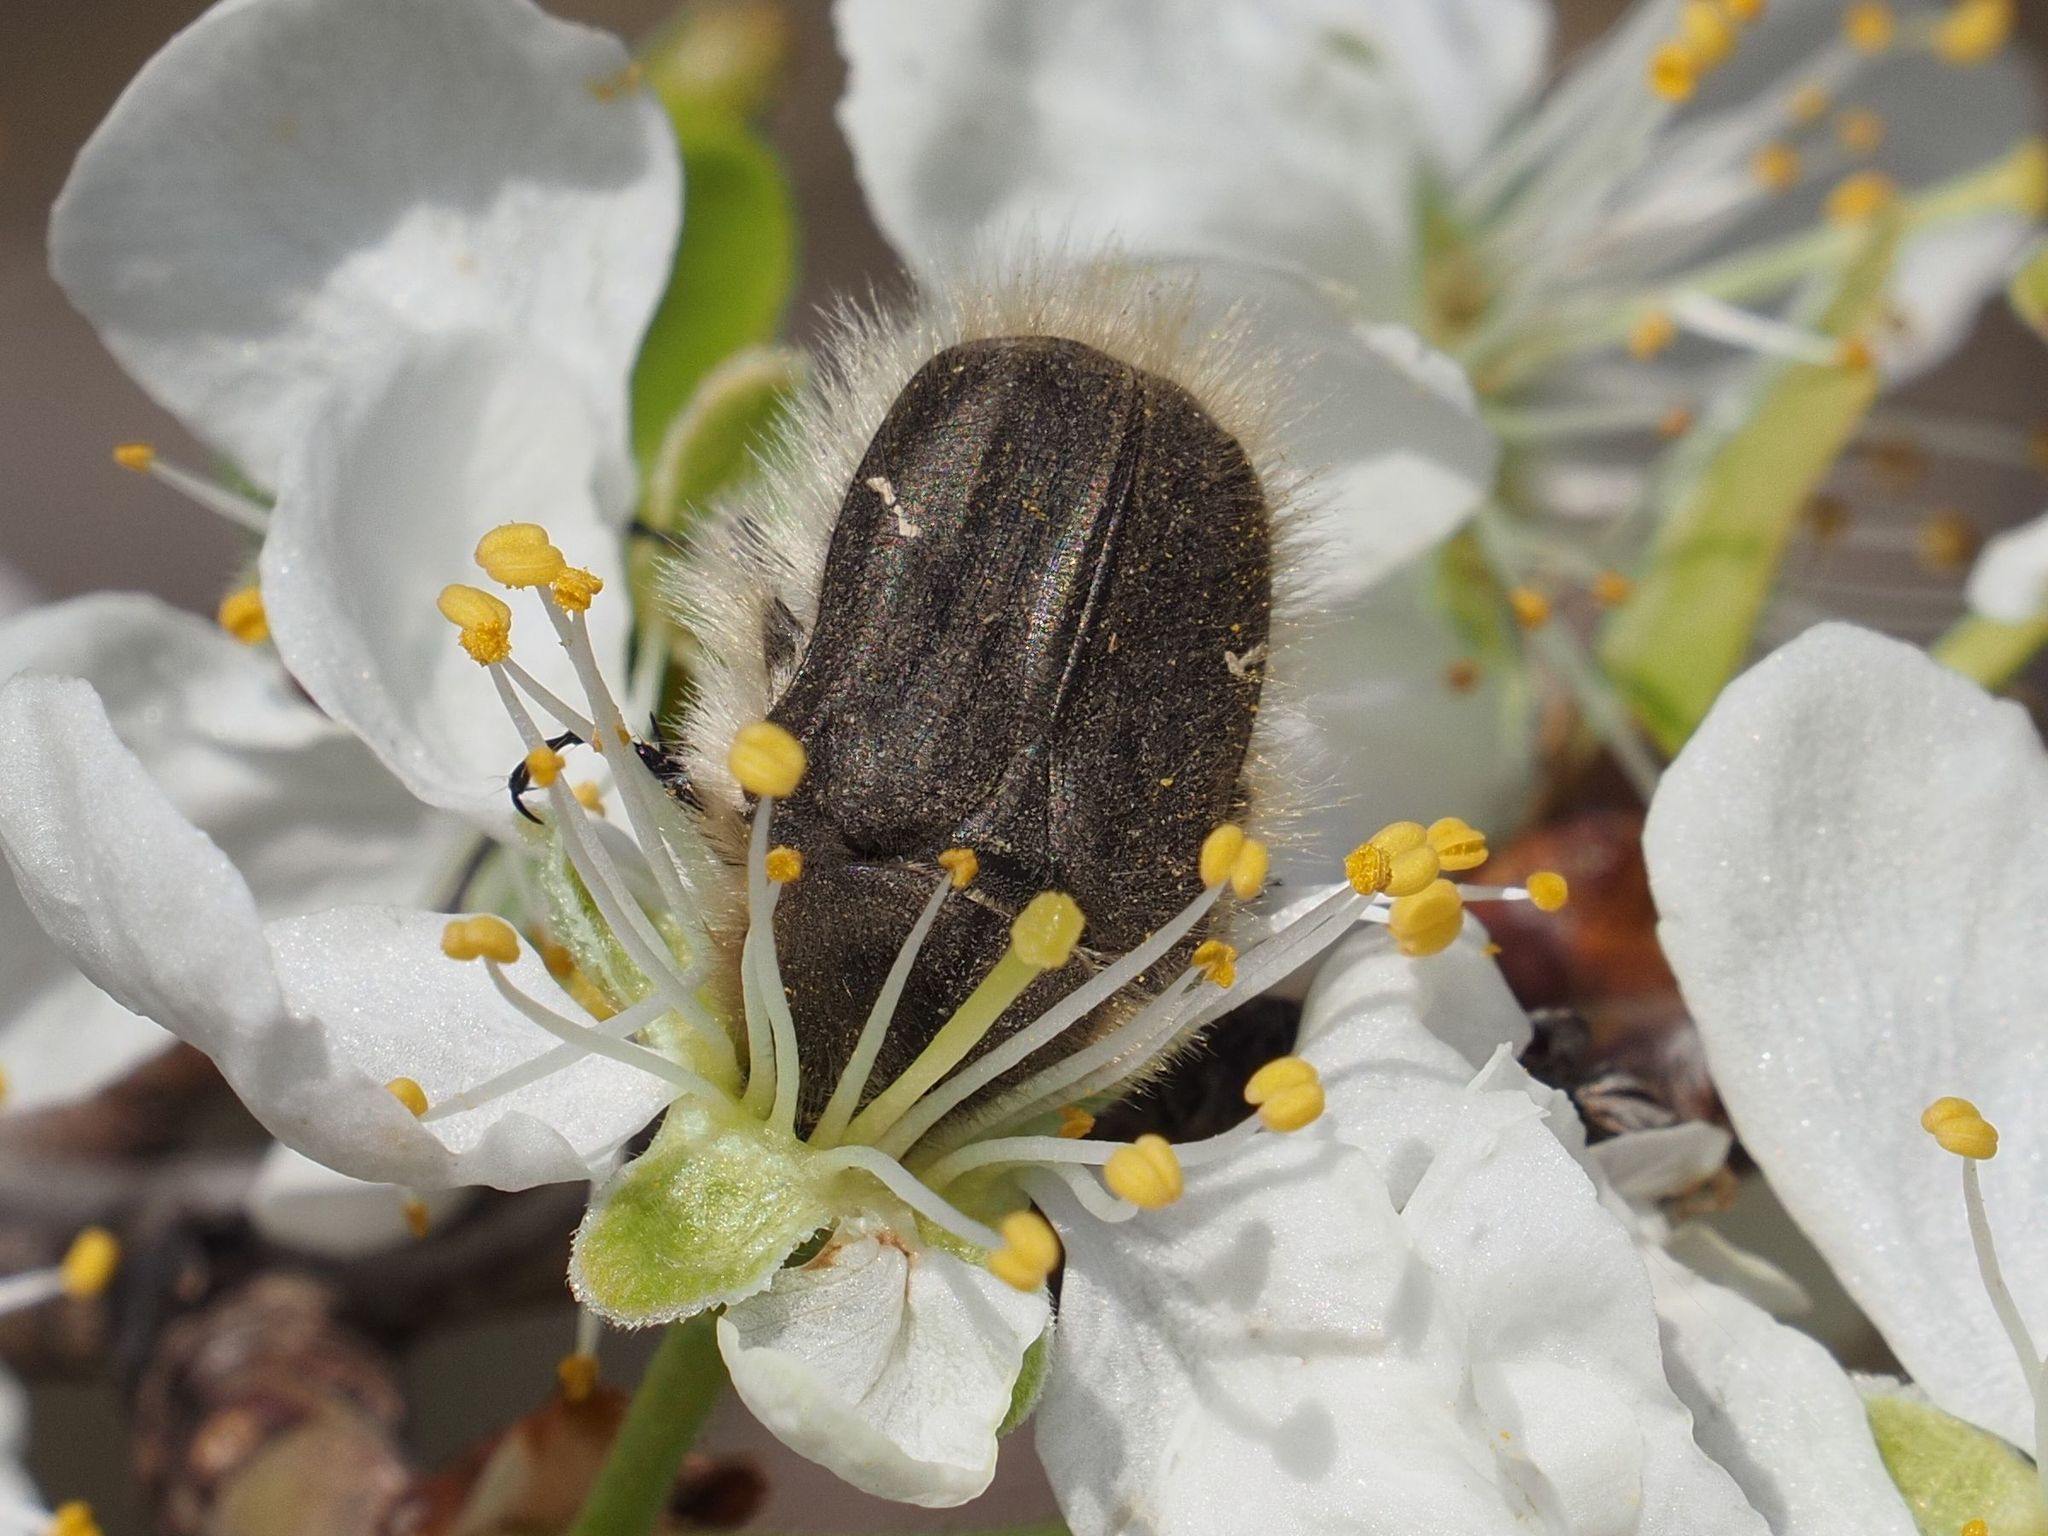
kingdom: Animalia
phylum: Arthropoda
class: Insecta
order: Coleoptera
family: Scarabaeidae
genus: Tropinota
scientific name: Tropinota hirta
